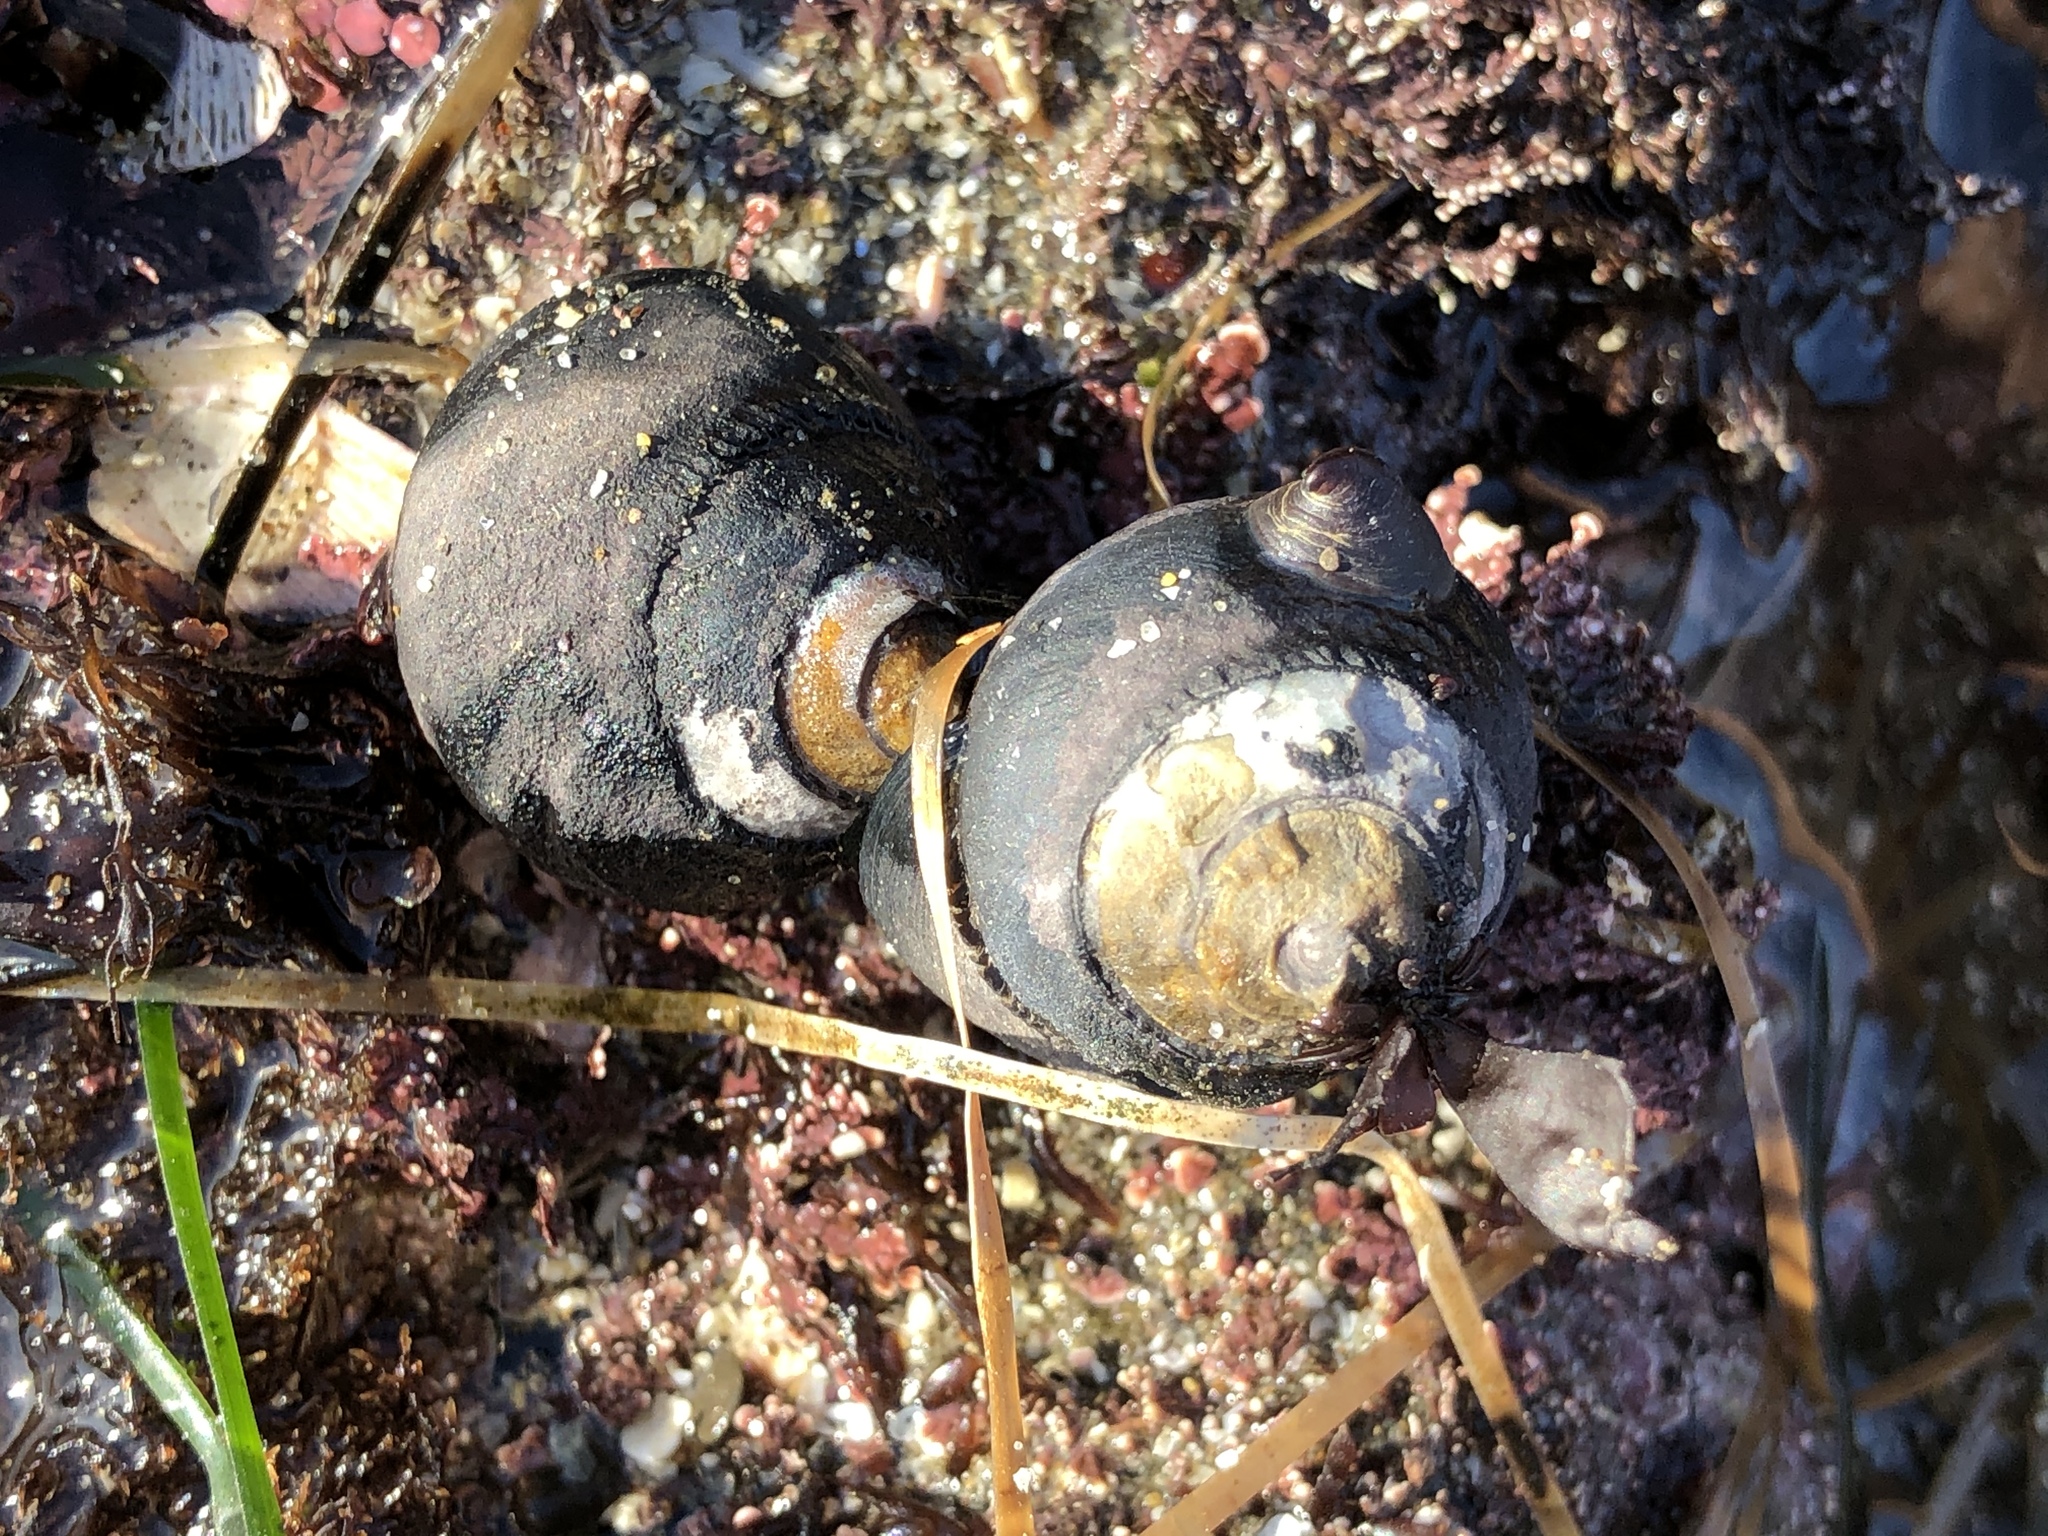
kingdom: Animalia
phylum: Mollusca
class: Gastropoda
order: Trochida
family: Tegulidae
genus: Tegula
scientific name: Tegula funebralis
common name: Black tegula
